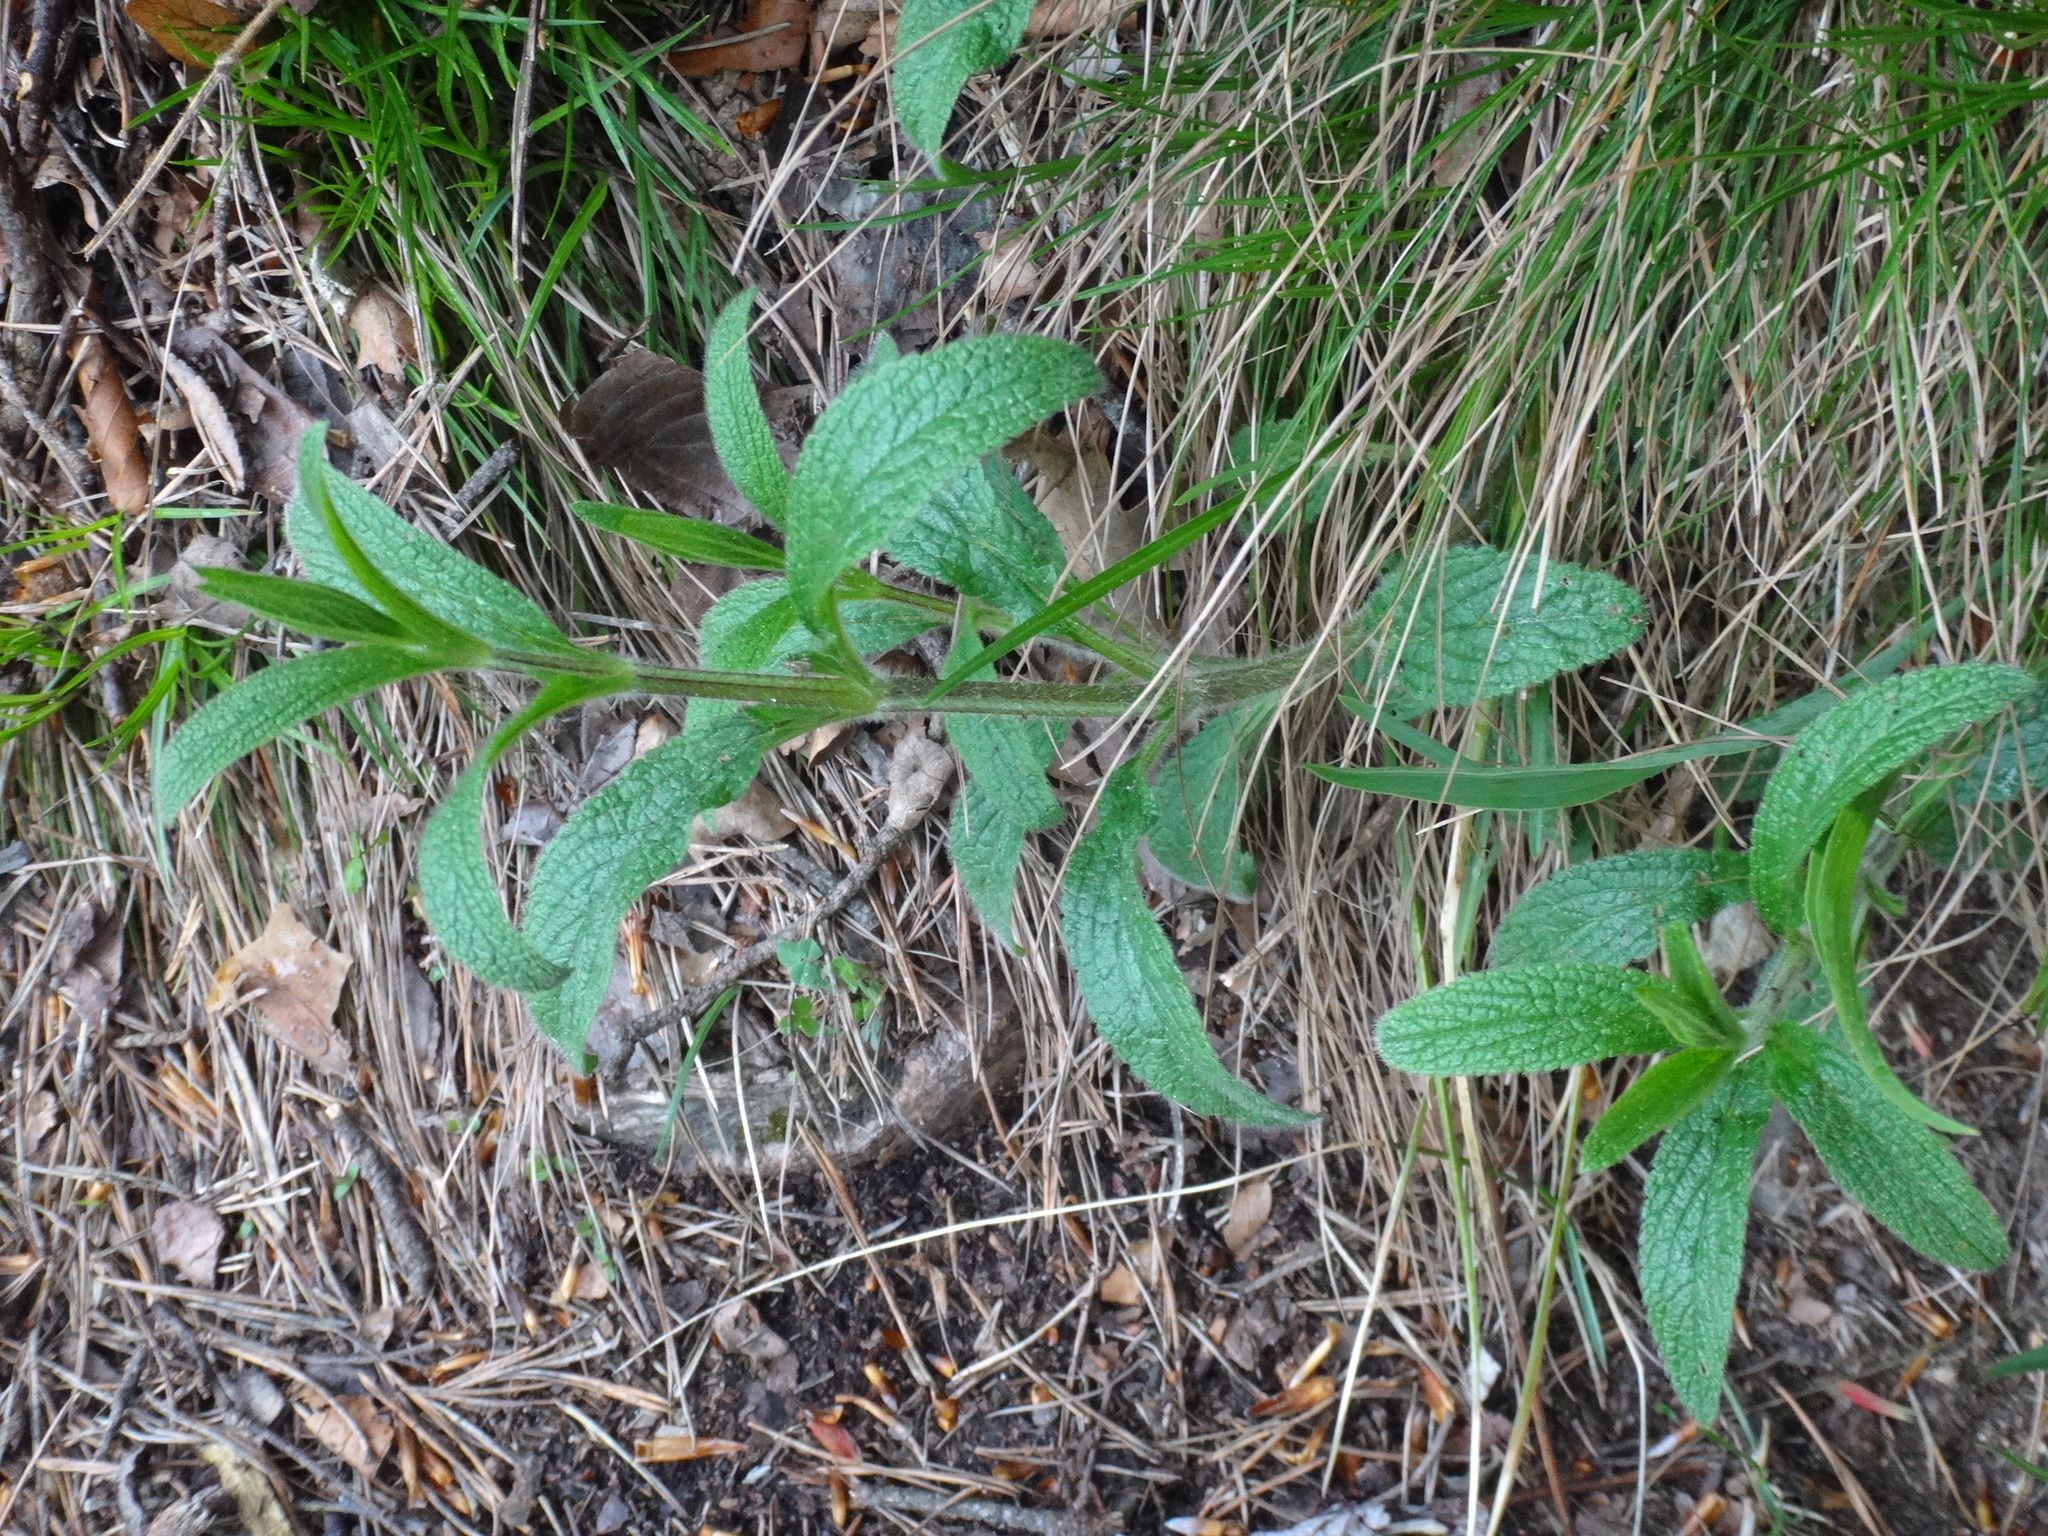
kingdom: Plantae
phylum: Tracheophyta
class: Magnoliopsida
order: Lamiales
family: Lamiaceae
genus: Stachys
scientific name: Stachys recta
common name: Perennial yellow-woundwort
